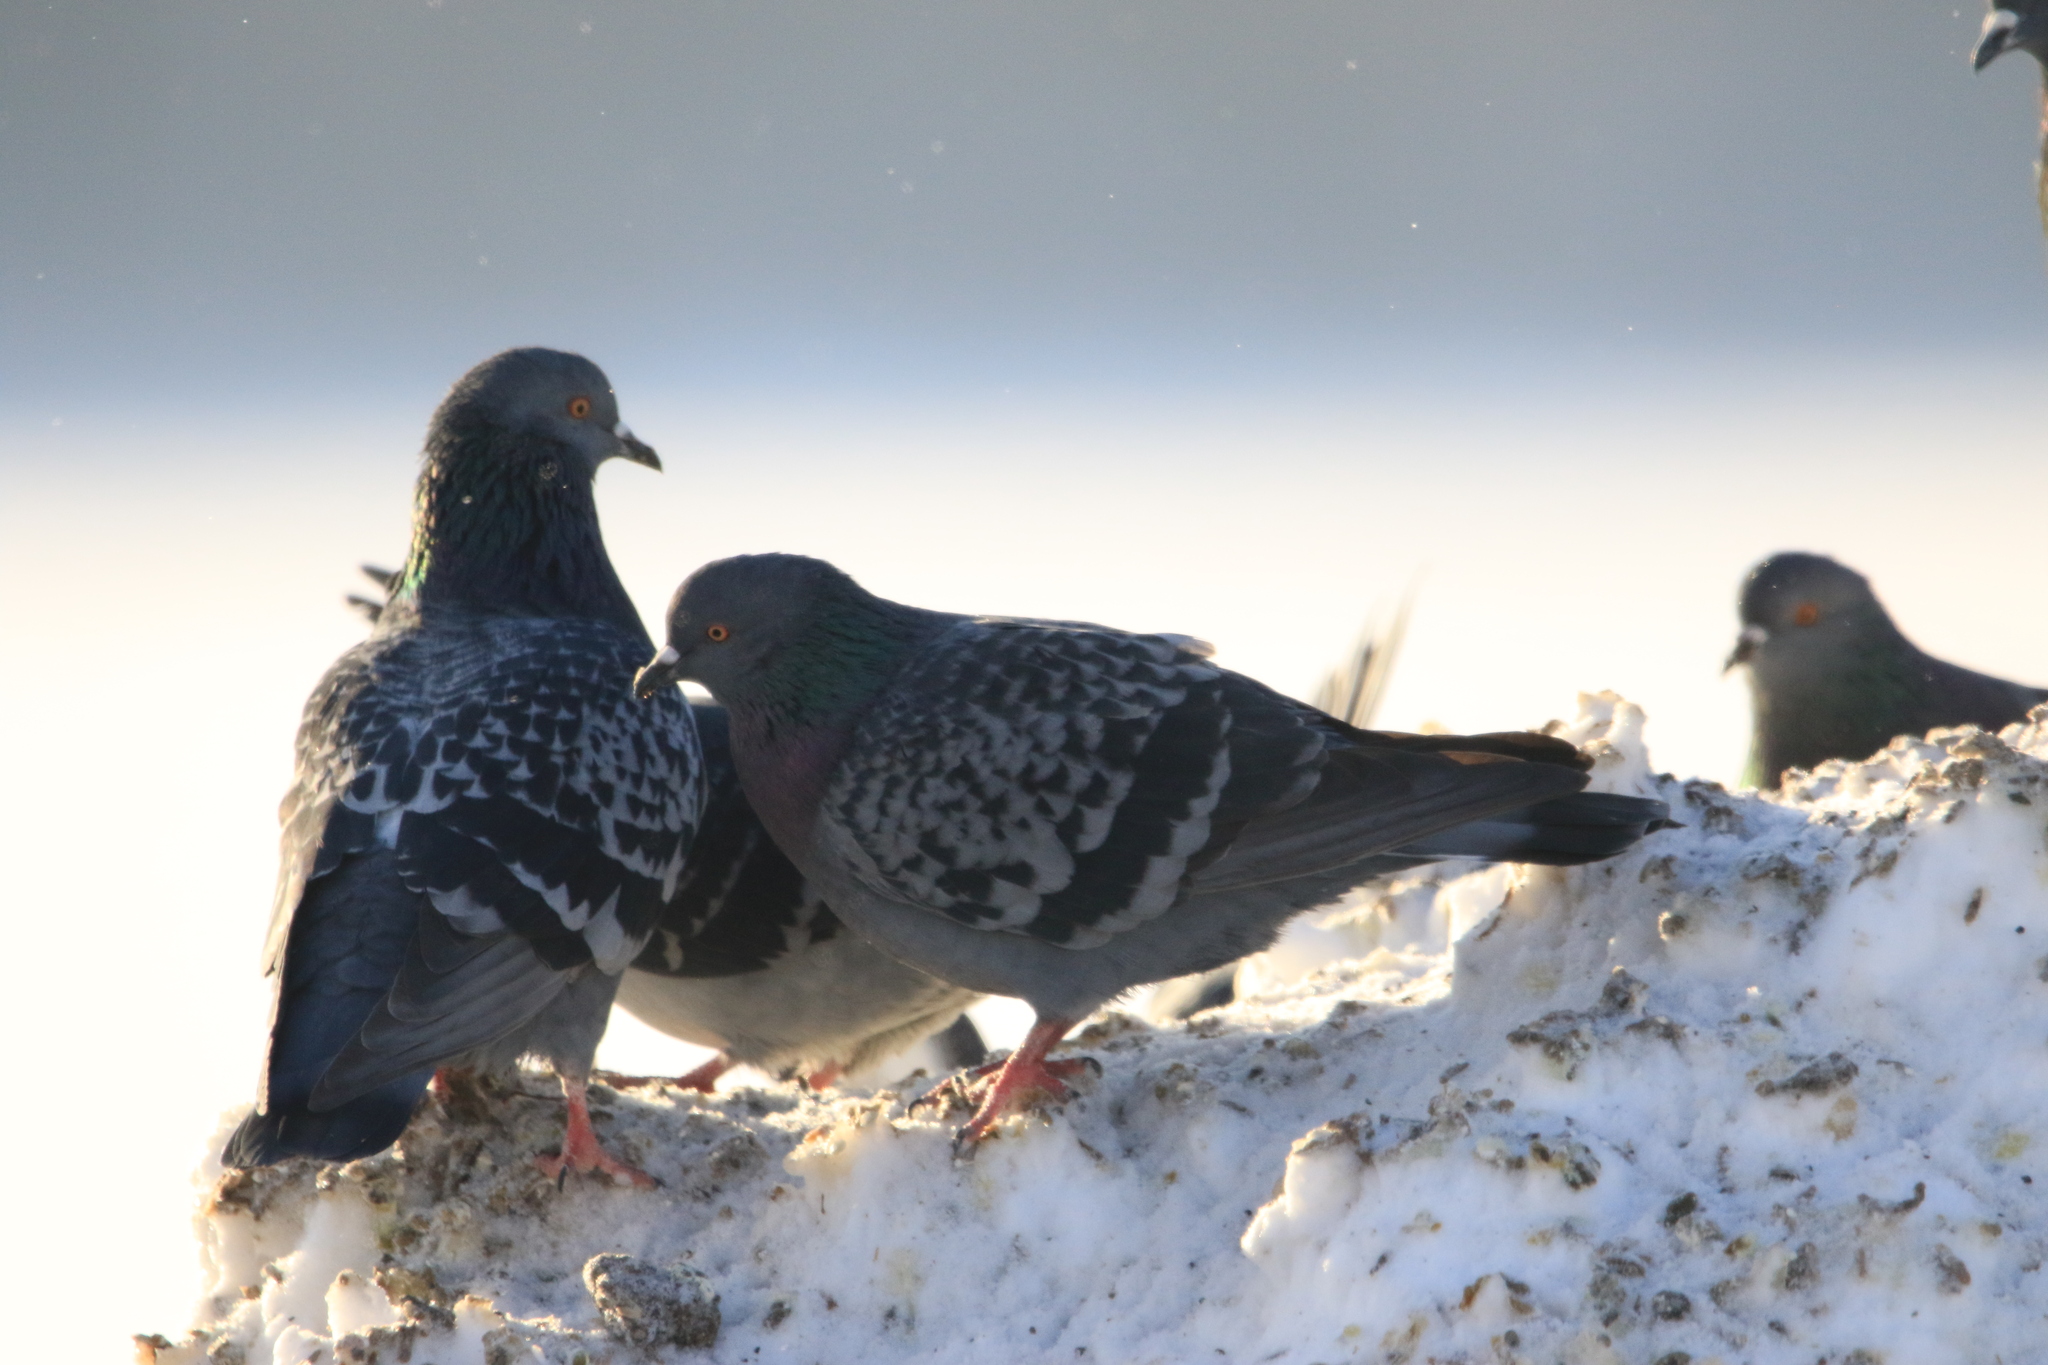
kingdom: Animalia
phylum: Chordata
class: Aves
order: Columbiformes
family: Columbidae
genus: Columba
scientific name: Columba livia
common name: Rock pigeon
